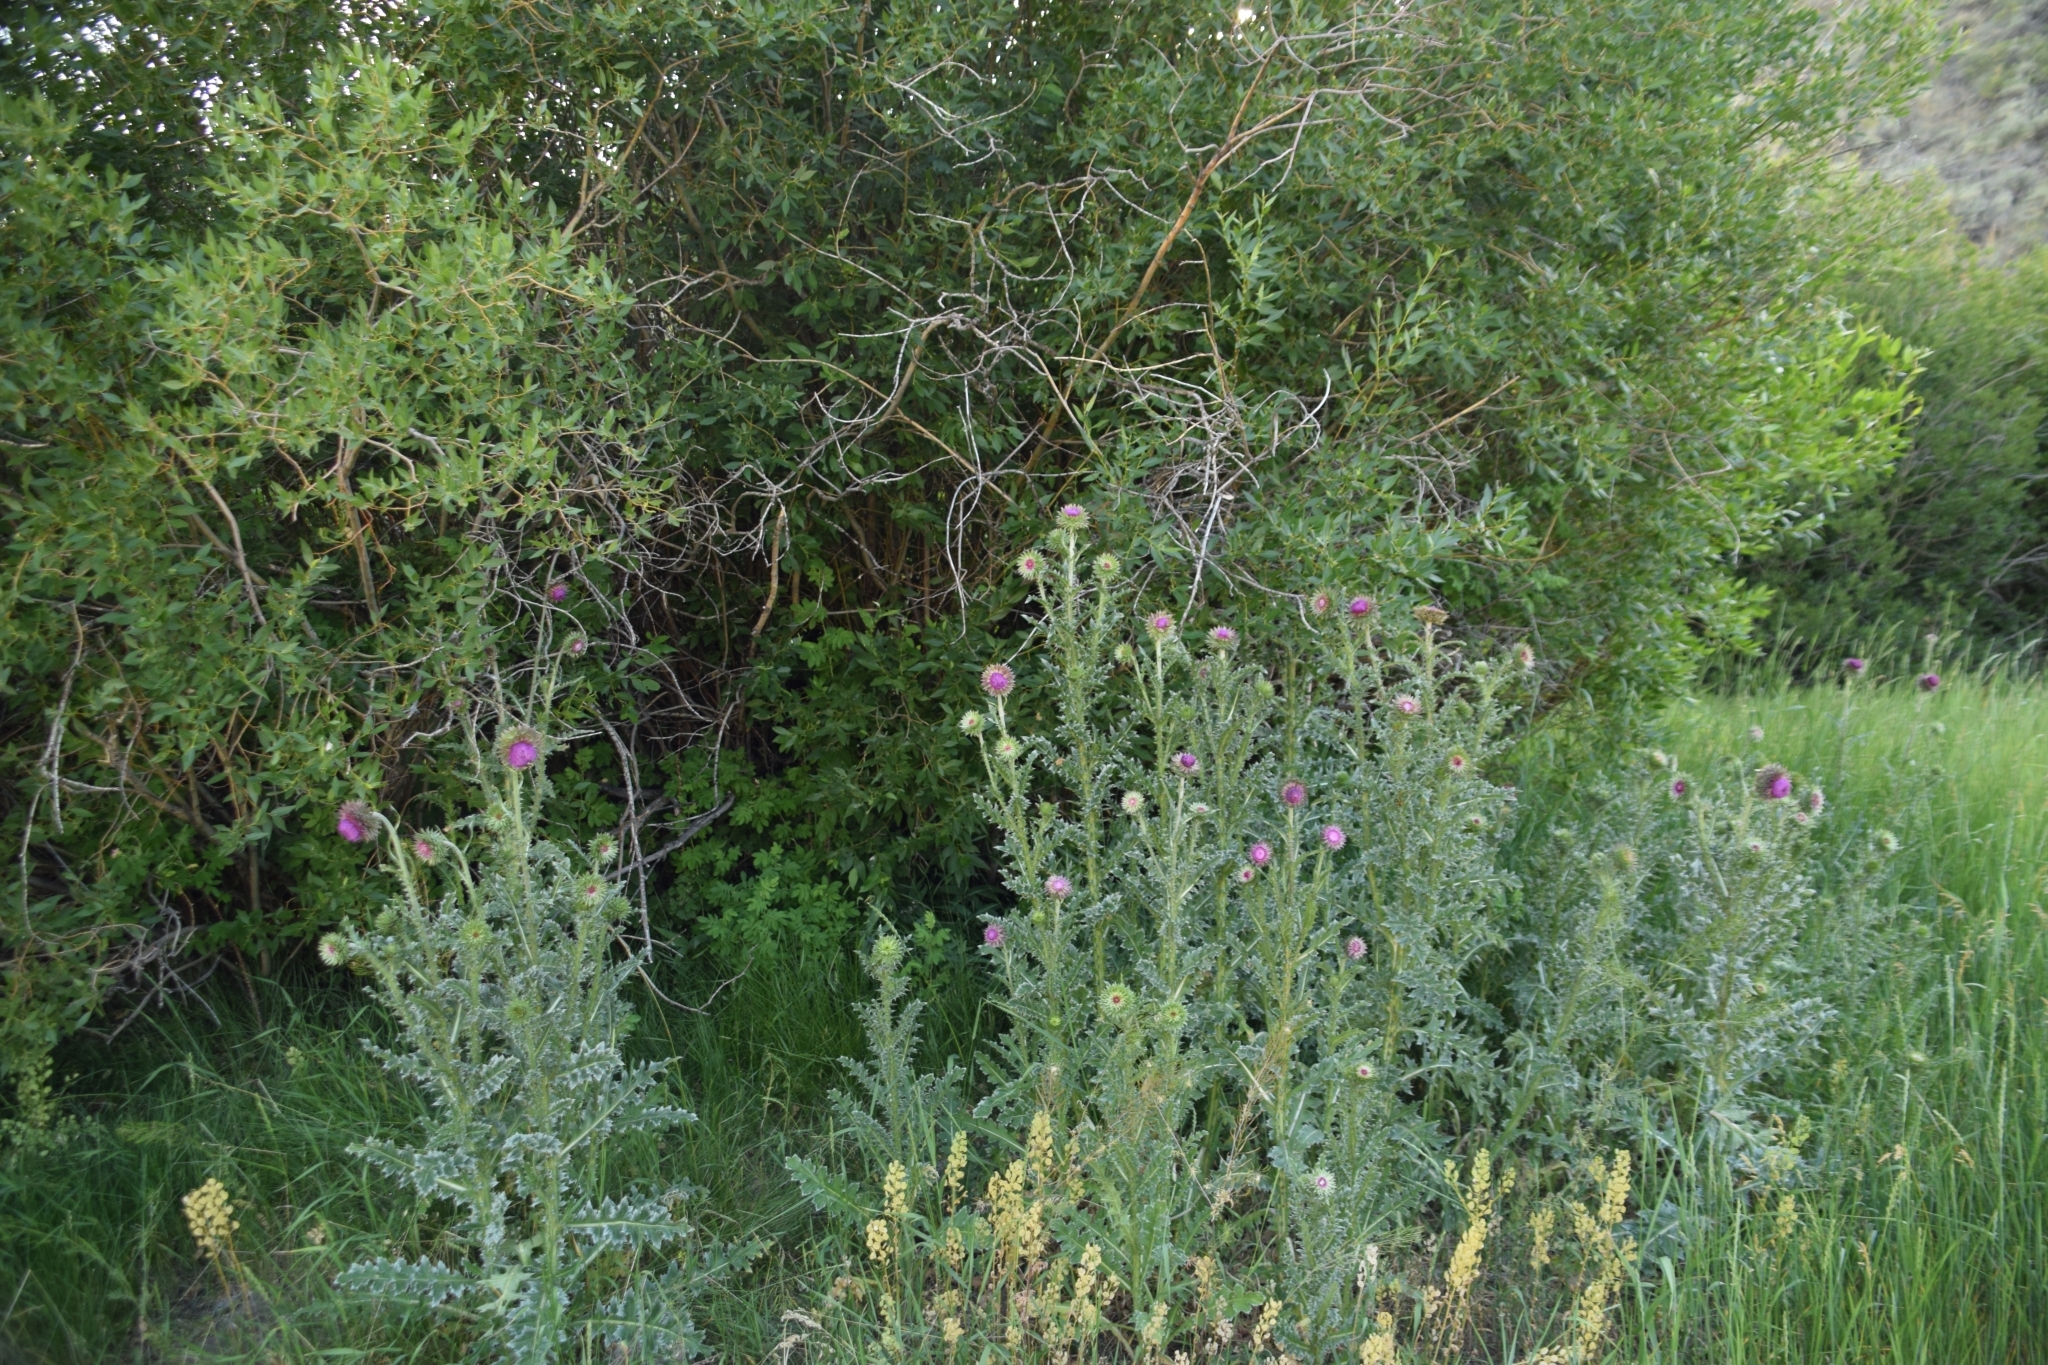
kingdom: Plantae
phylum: Tracheophyta
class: Magnoliopsida
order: Asterales
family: Asteraceae
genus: Carduus
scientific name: Carduus nutans
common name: Musk thistle
